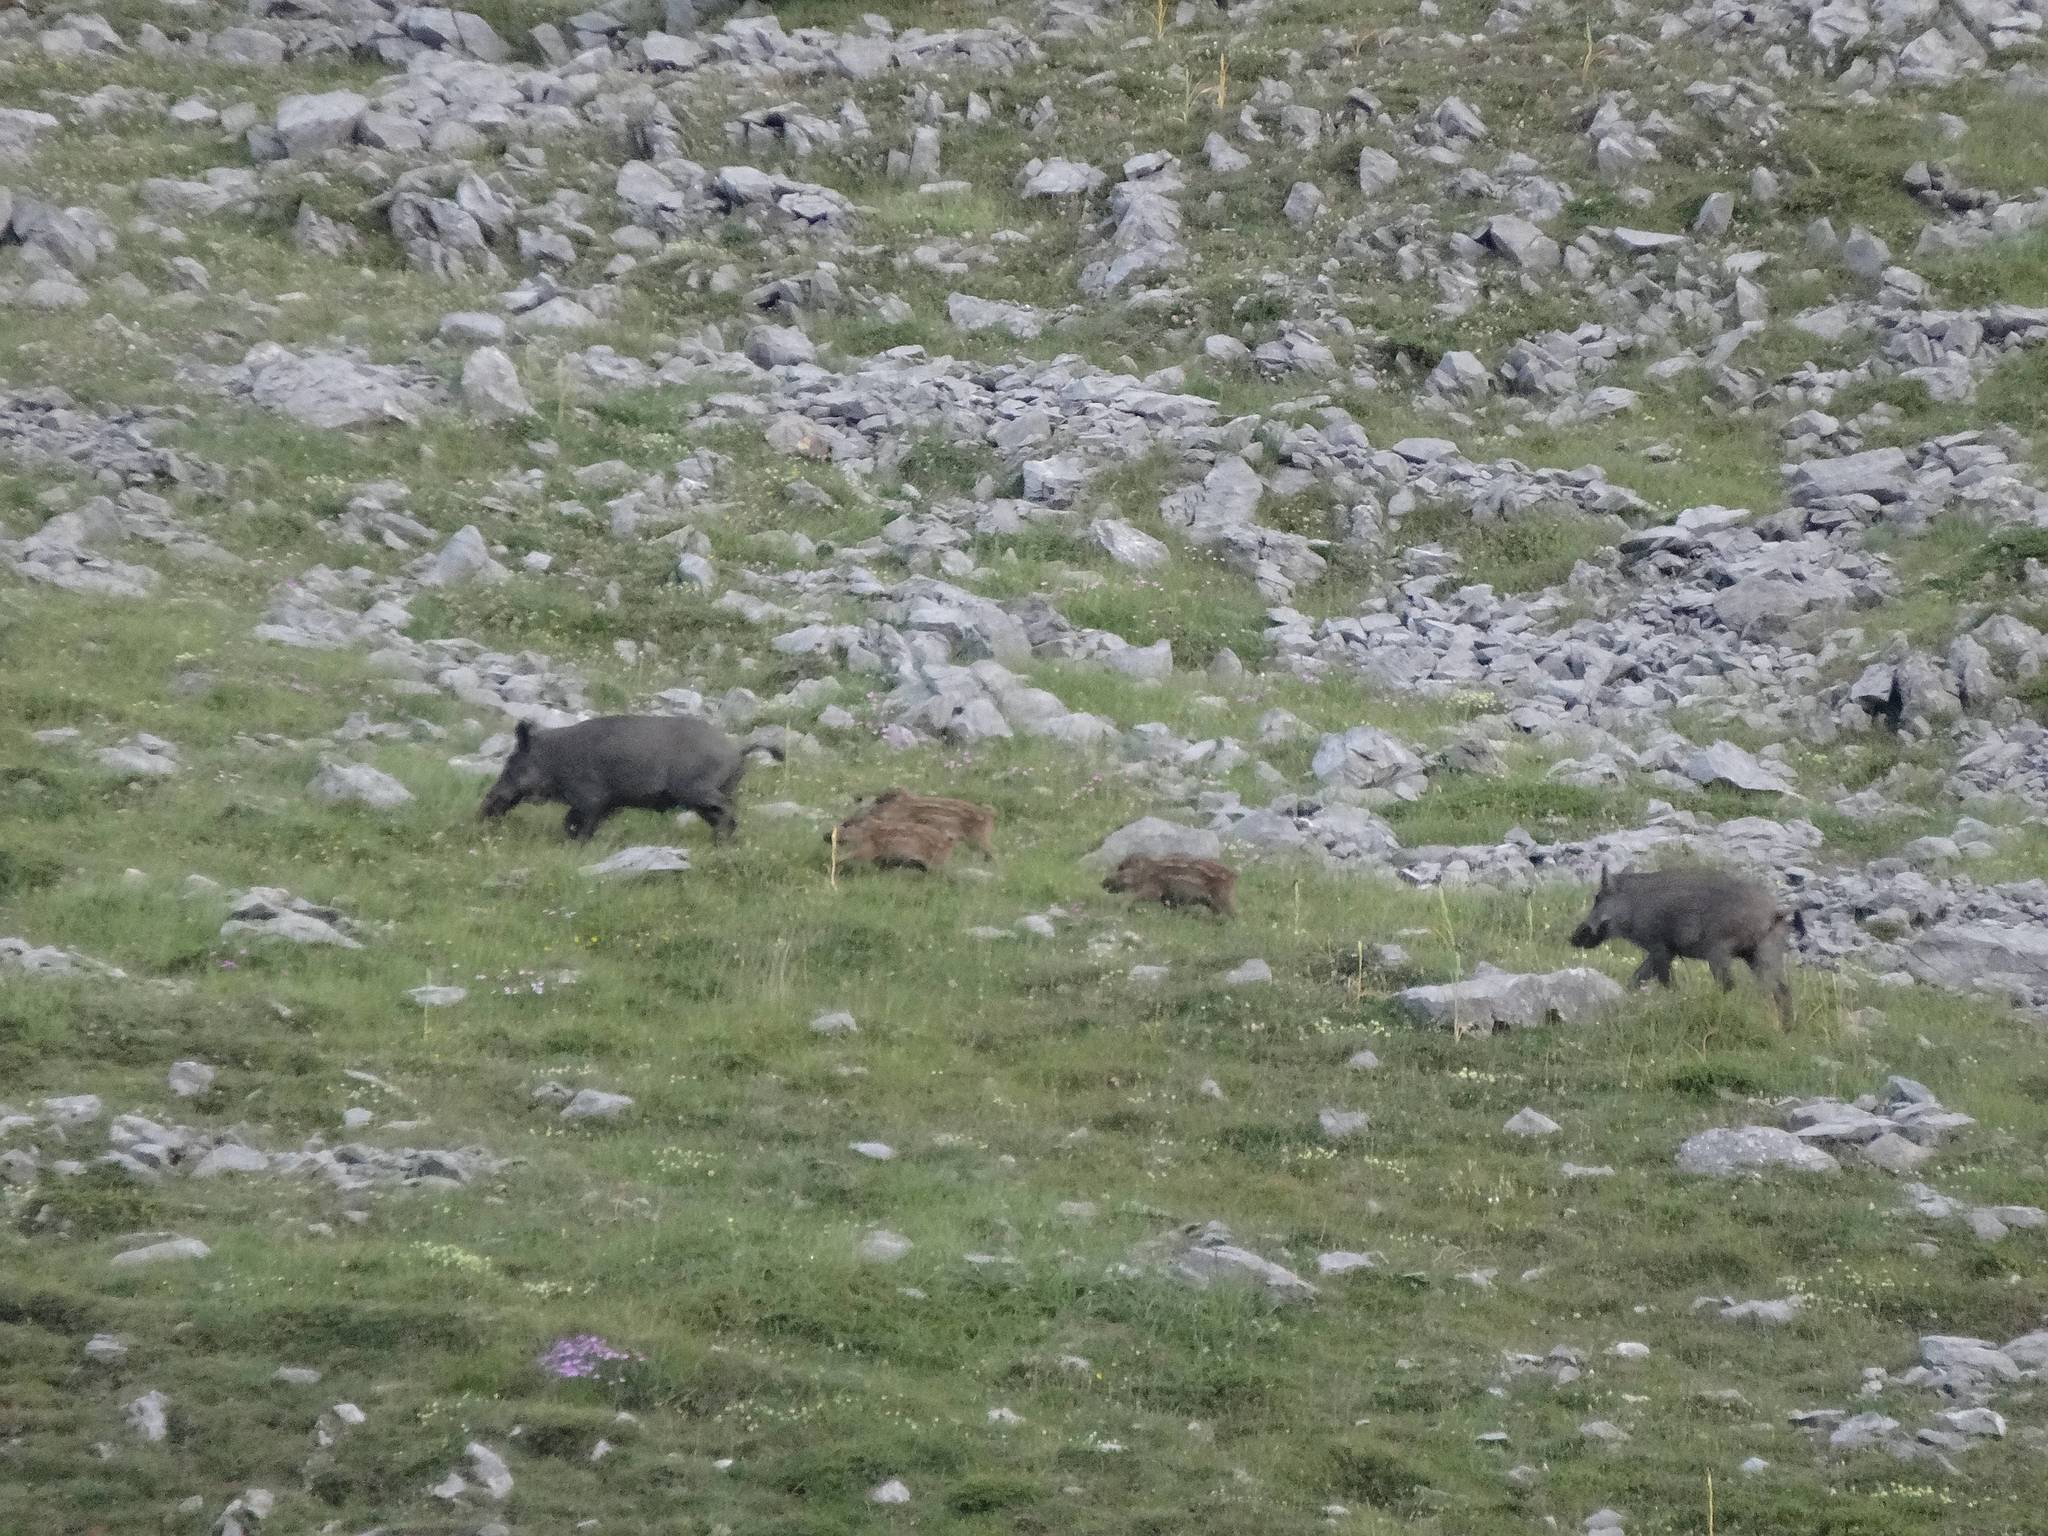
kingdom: Animalia
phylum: Chordata
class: Mammalia
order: Artiodactyla
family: Suidae
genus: Sus
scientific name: Sus scrofa
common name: Wild boar
